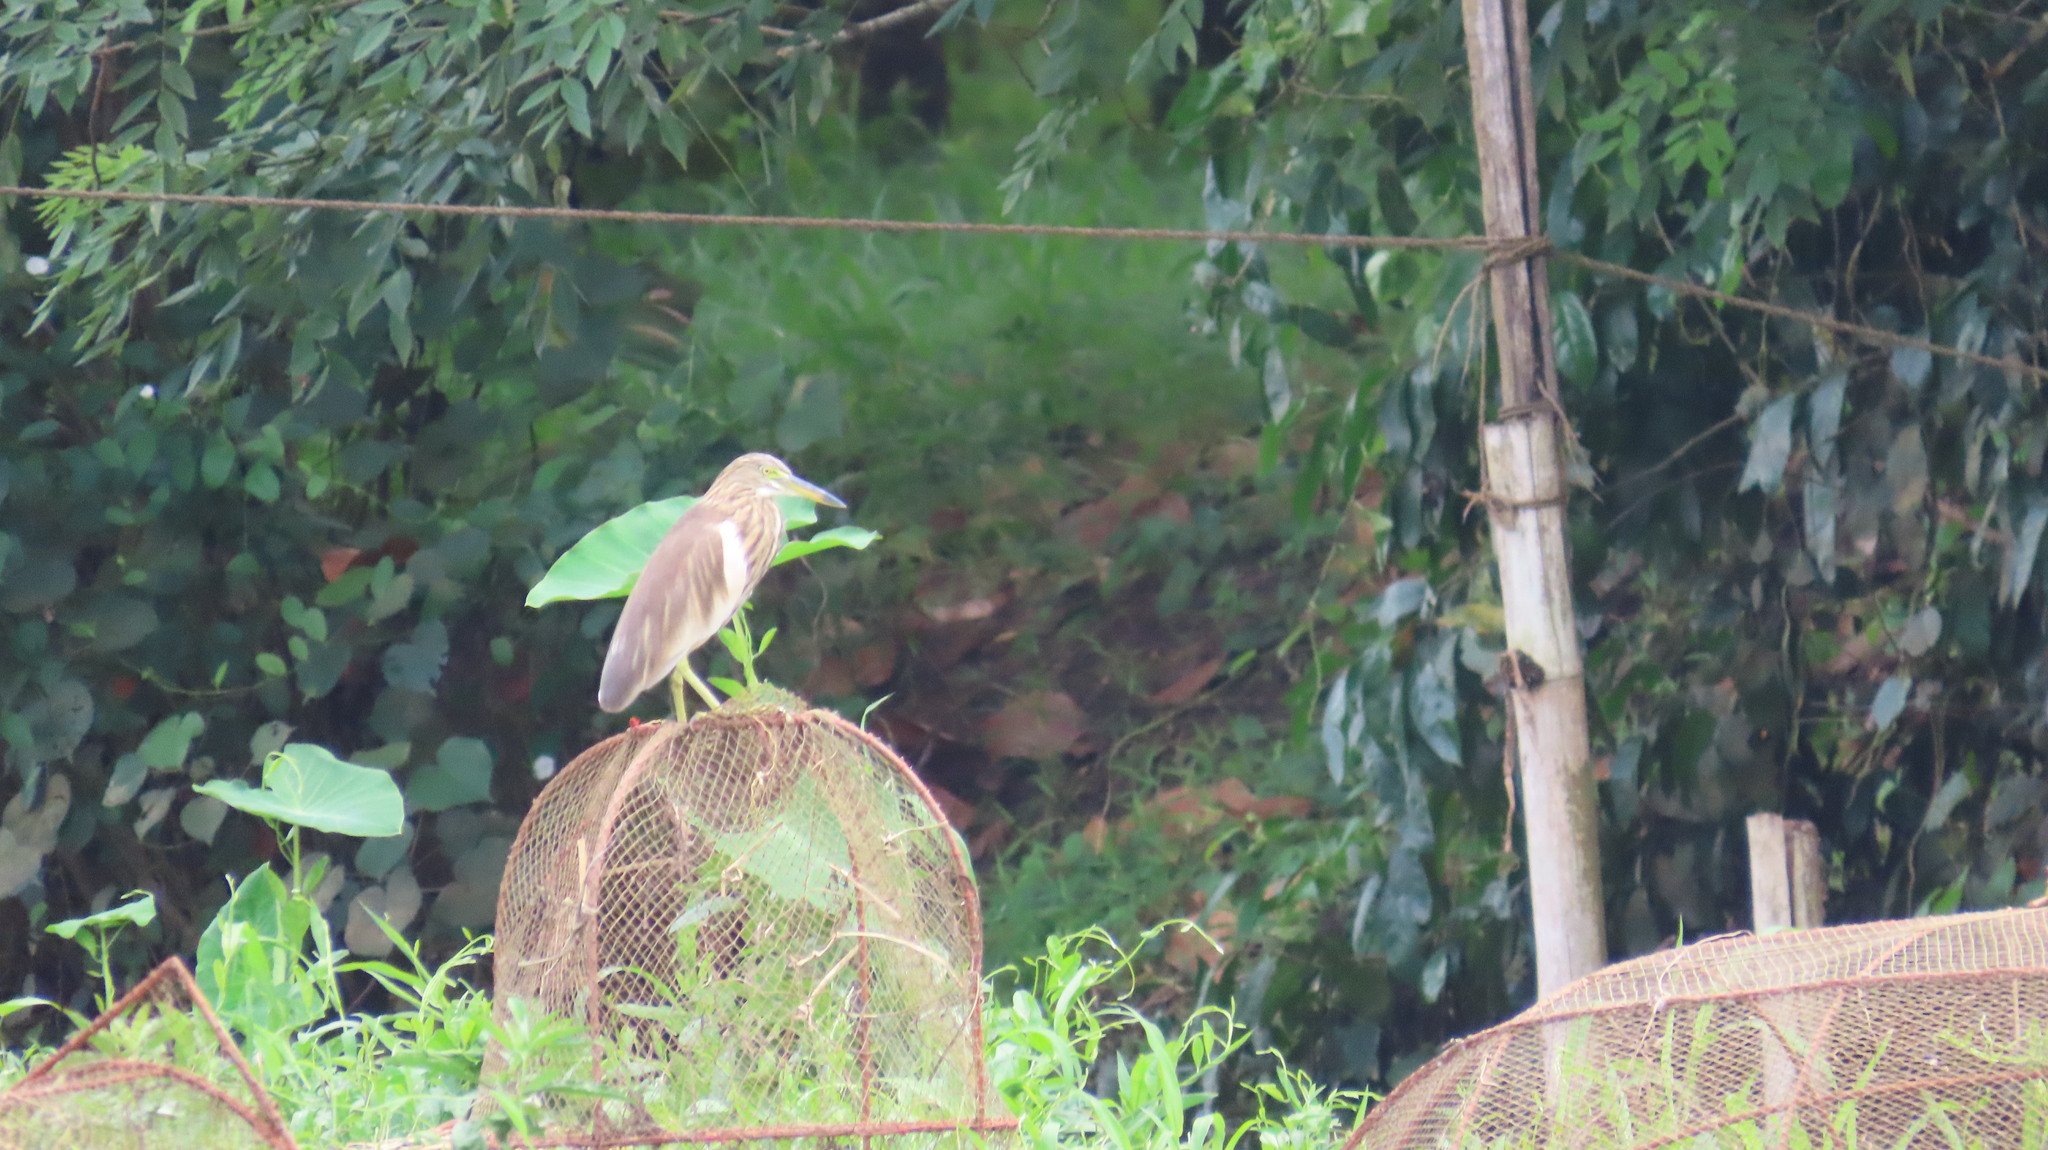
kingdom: Animalia
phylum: Chordata
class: Aves
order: Pelecaniformes
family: Ardeidae
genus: Ardeola
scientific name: Ardeola grayii
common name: Indian pond heron
